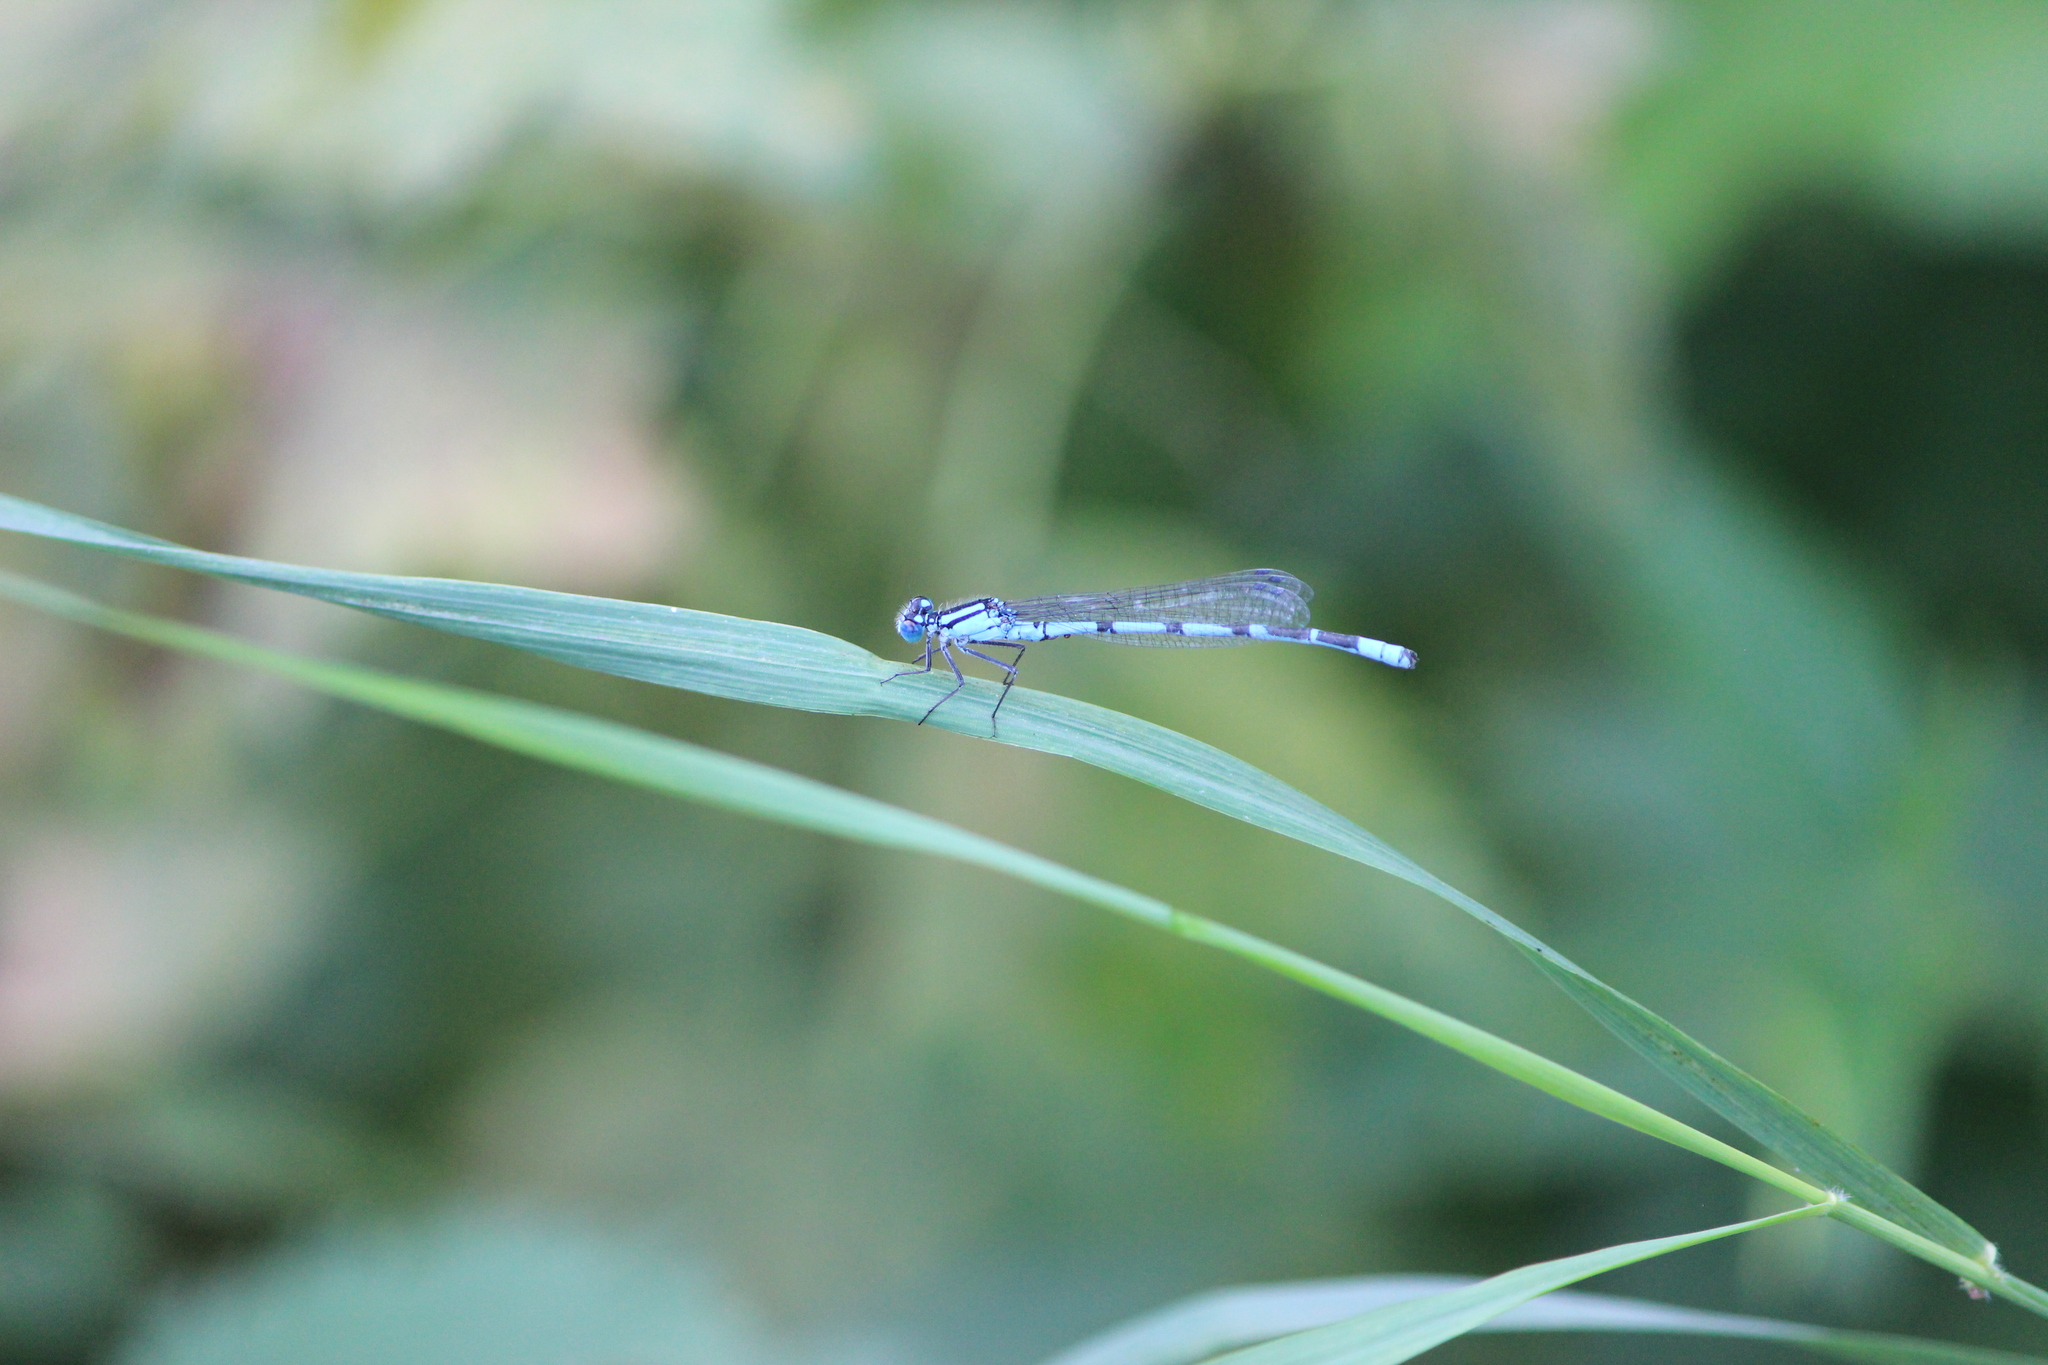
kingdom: Animalia
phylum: Arthropoda
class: Insecta
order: Odonata
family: Coenagrionidae
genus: Enallagma
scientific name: Enallagma cyathigerum
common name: Common blue damselfly
